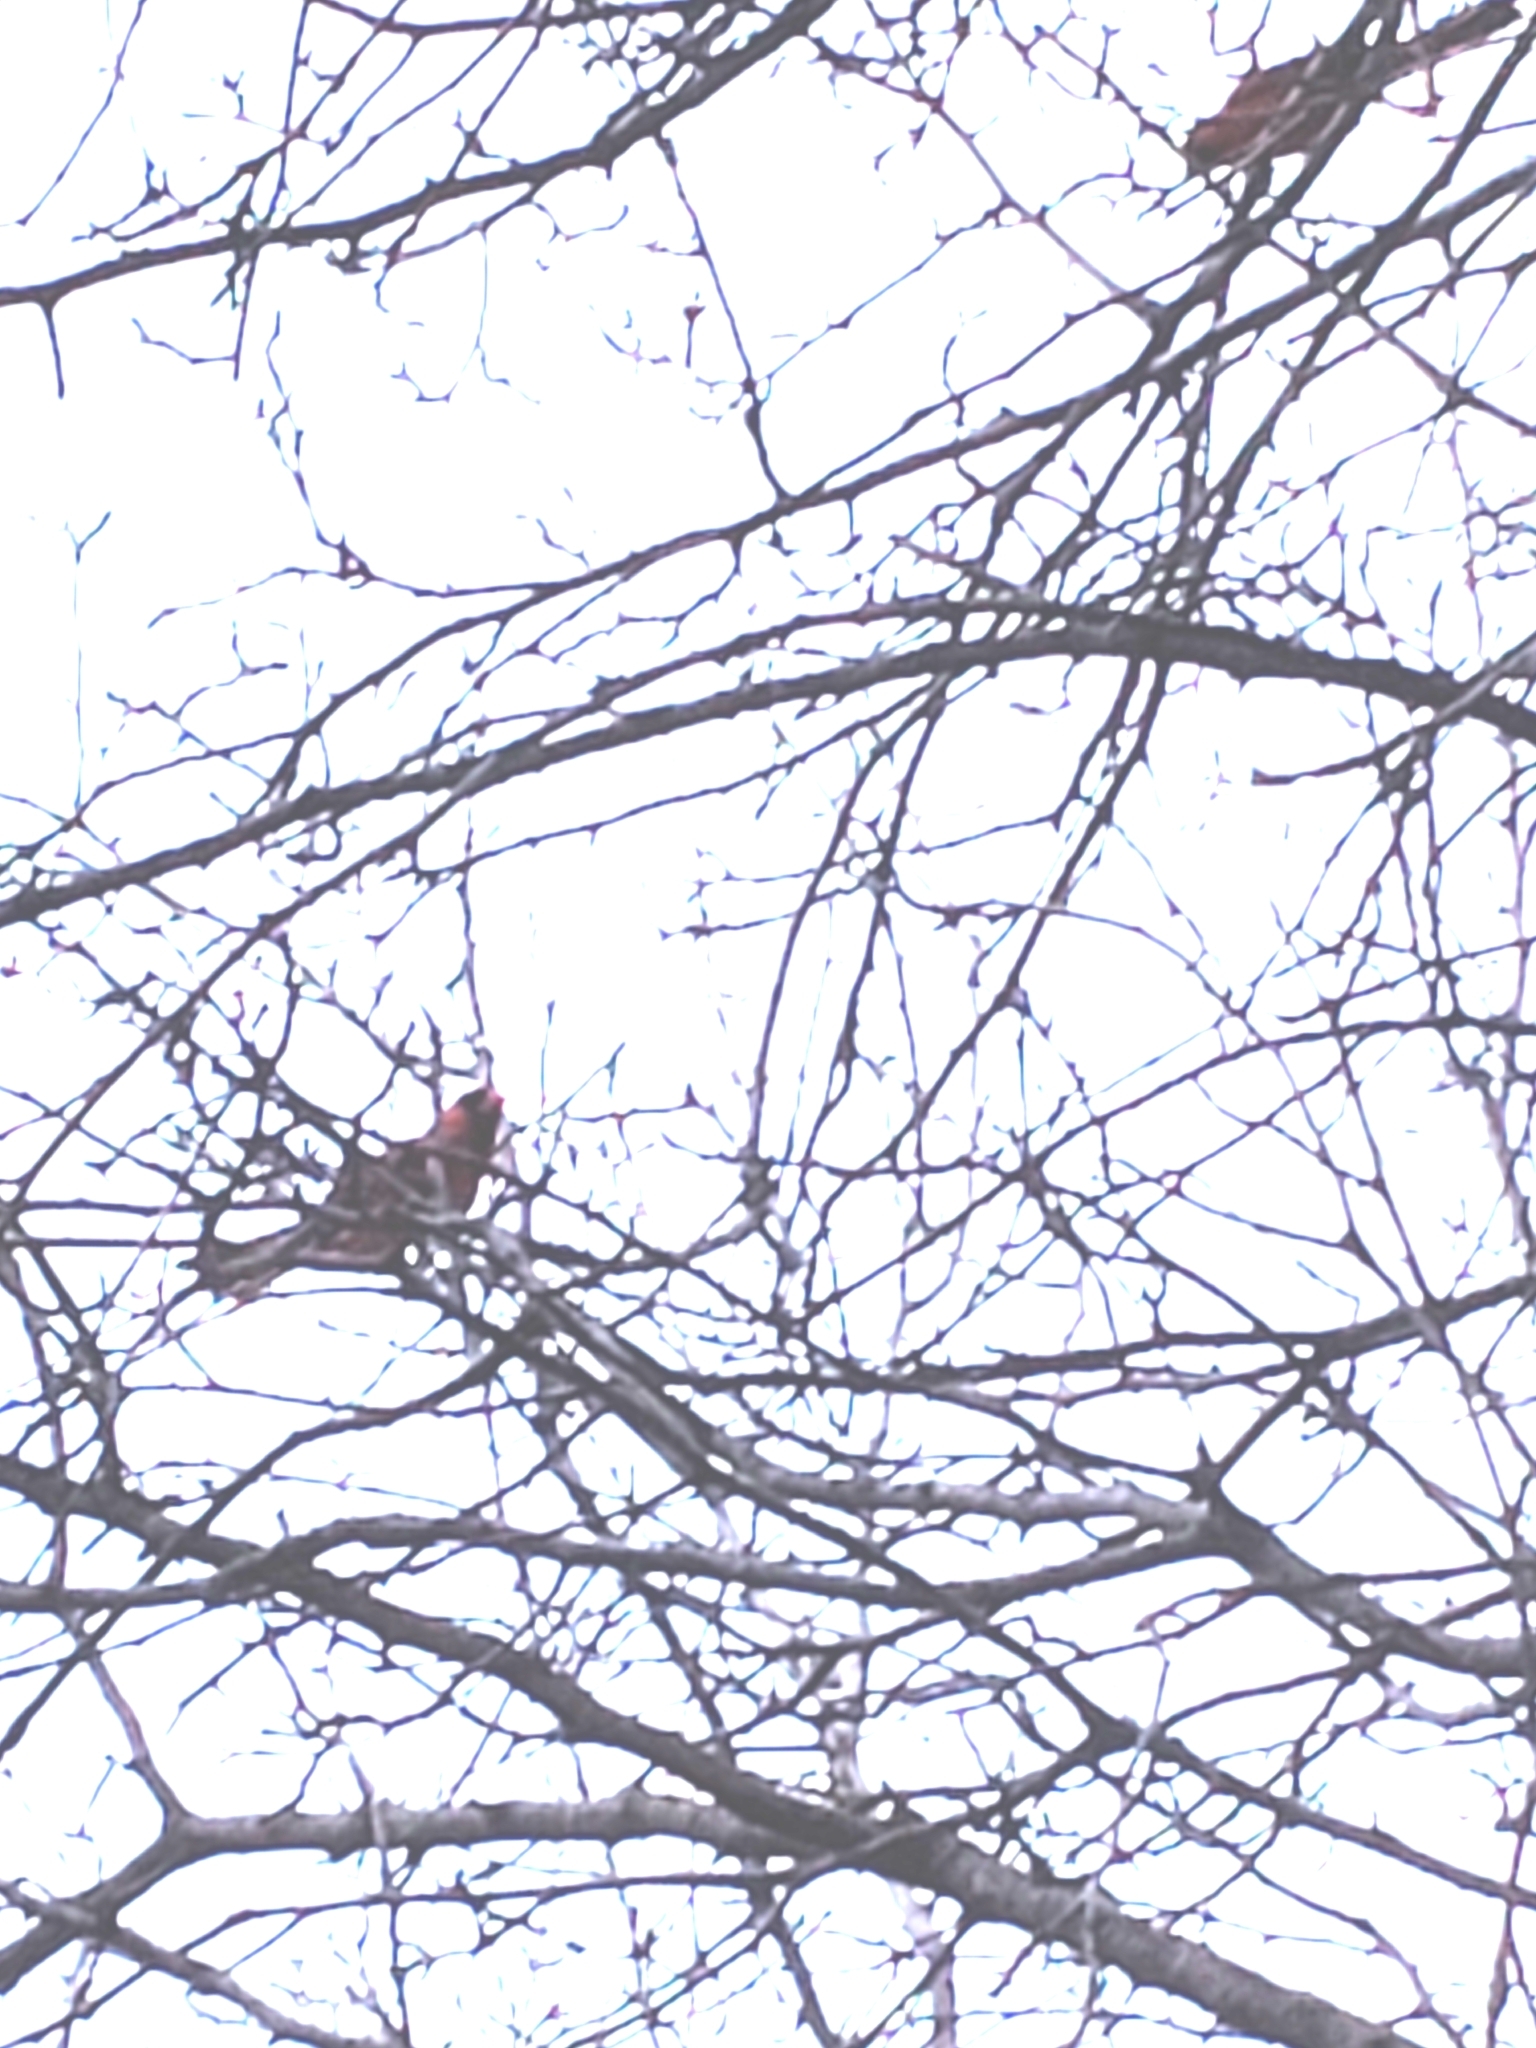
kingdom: Animalia
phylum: Chordata
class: Aves
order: Passeriformes
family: Cardinalidae
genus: Cardinalis
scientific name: Cardinalis cardinalis
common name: Northern cardinal
